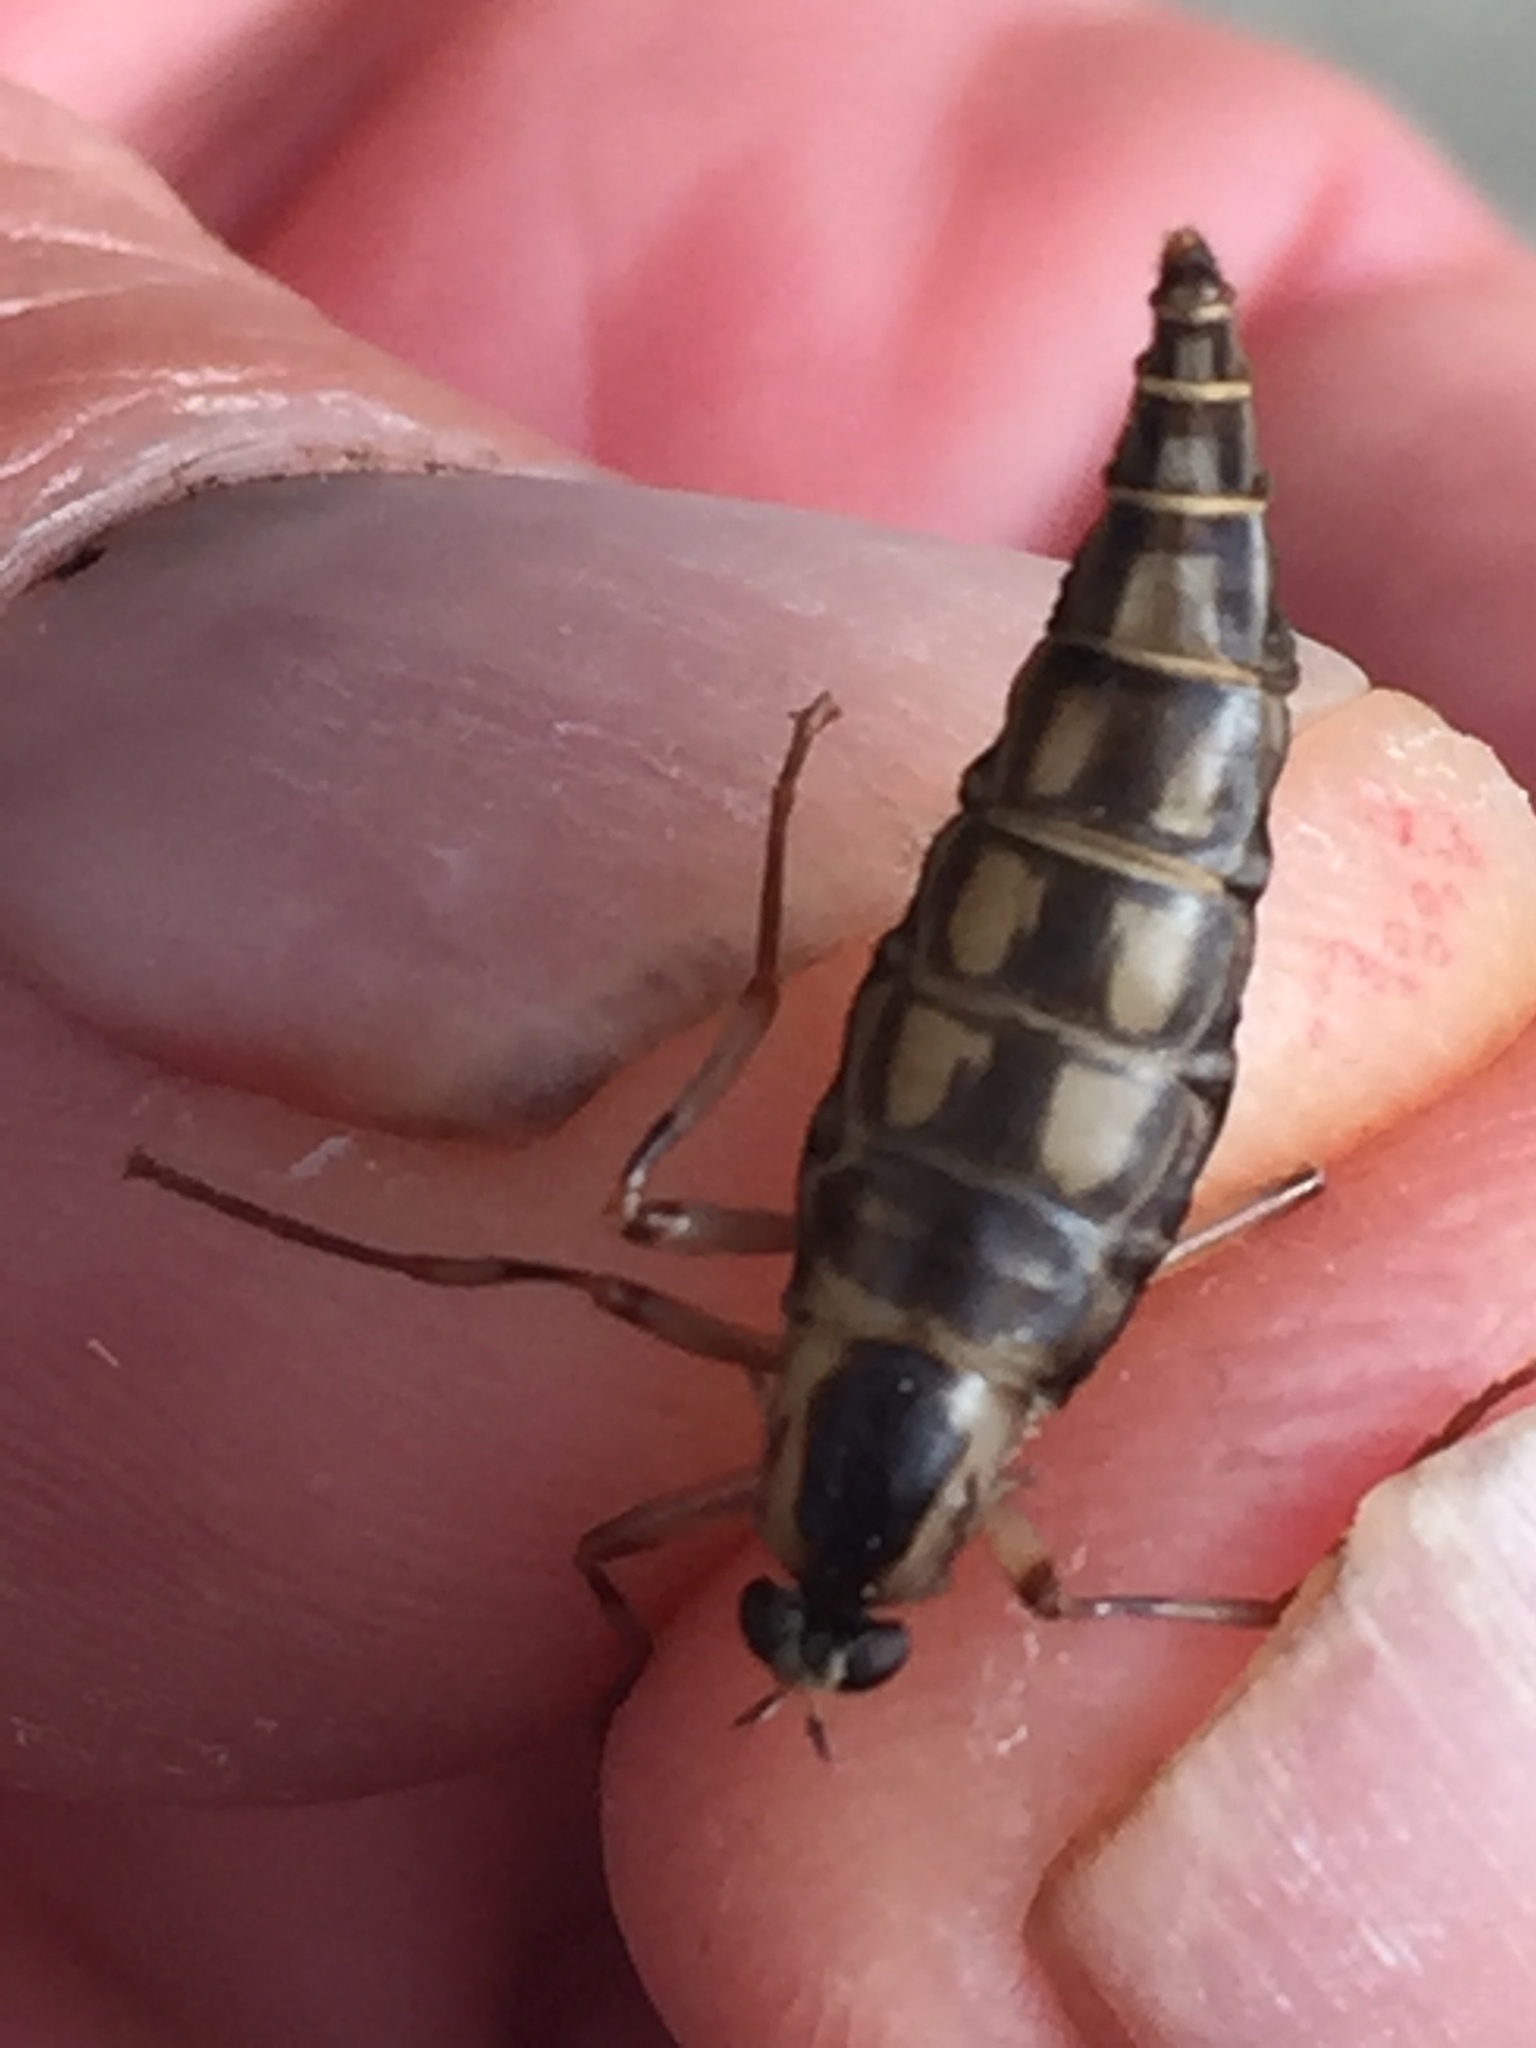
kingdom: Animalia
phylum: Arthropoda
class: Insecta
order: Diptera
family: Stratiomyidae
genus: Boreoides
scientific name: Boreoides tasmaniensis
